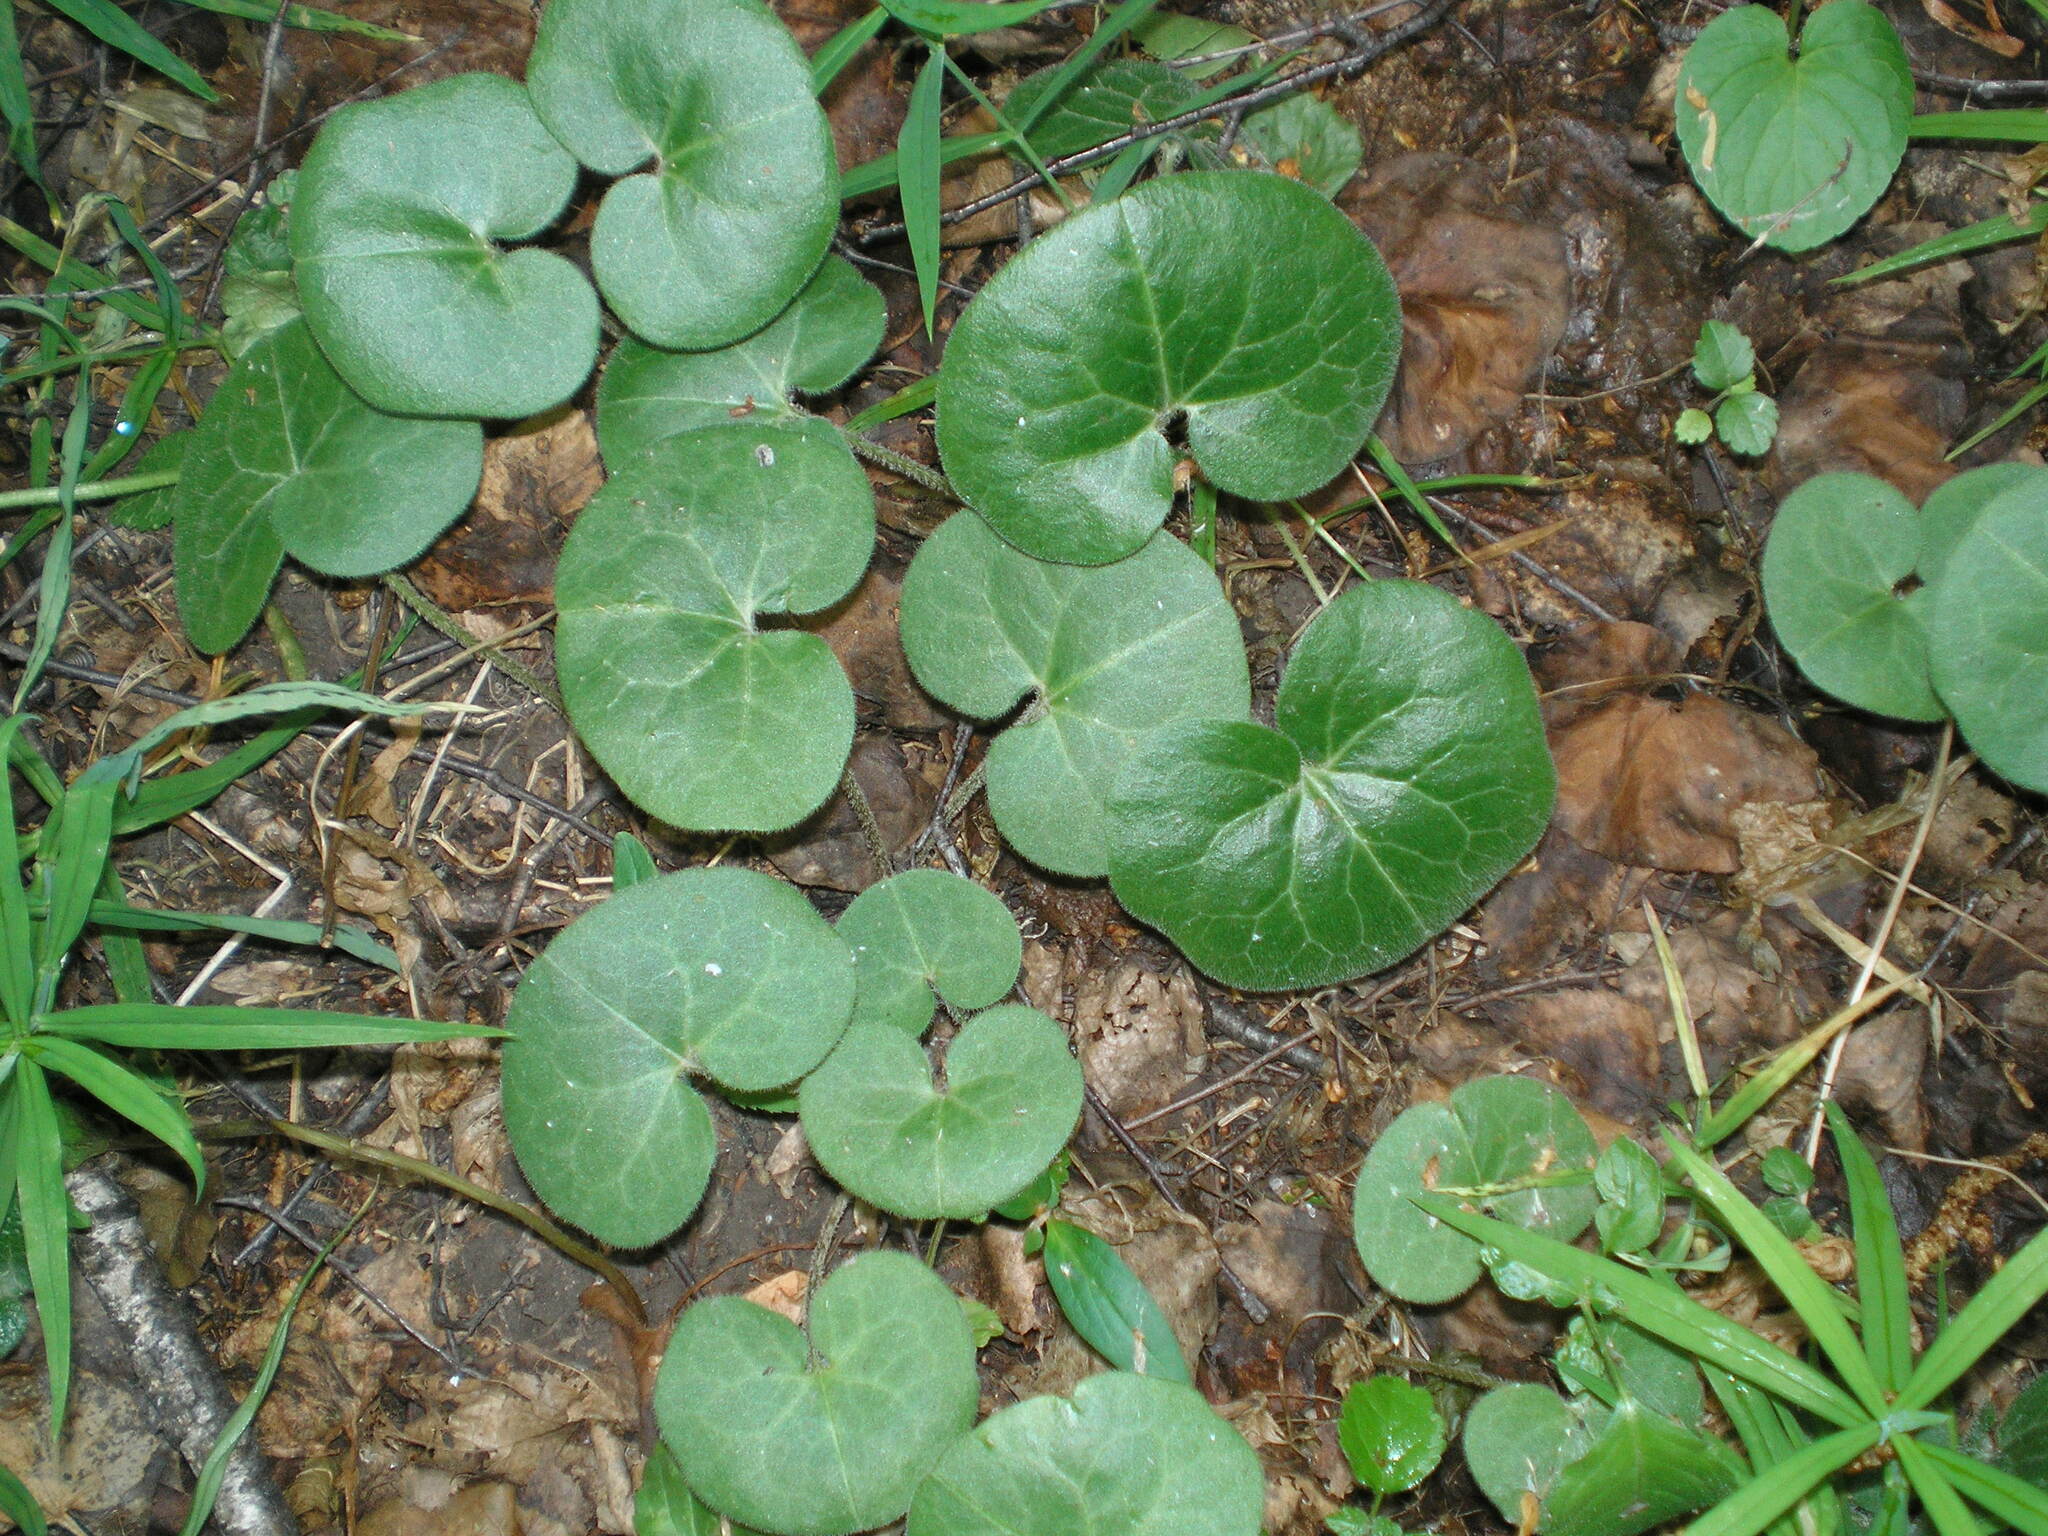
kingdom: Plantae
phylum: Tracheophyta
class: Magnoliopsida
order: Piperales
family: Aristolochiaceae
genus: Asarum
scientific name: Asarum europaeum
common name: Asarabacca
